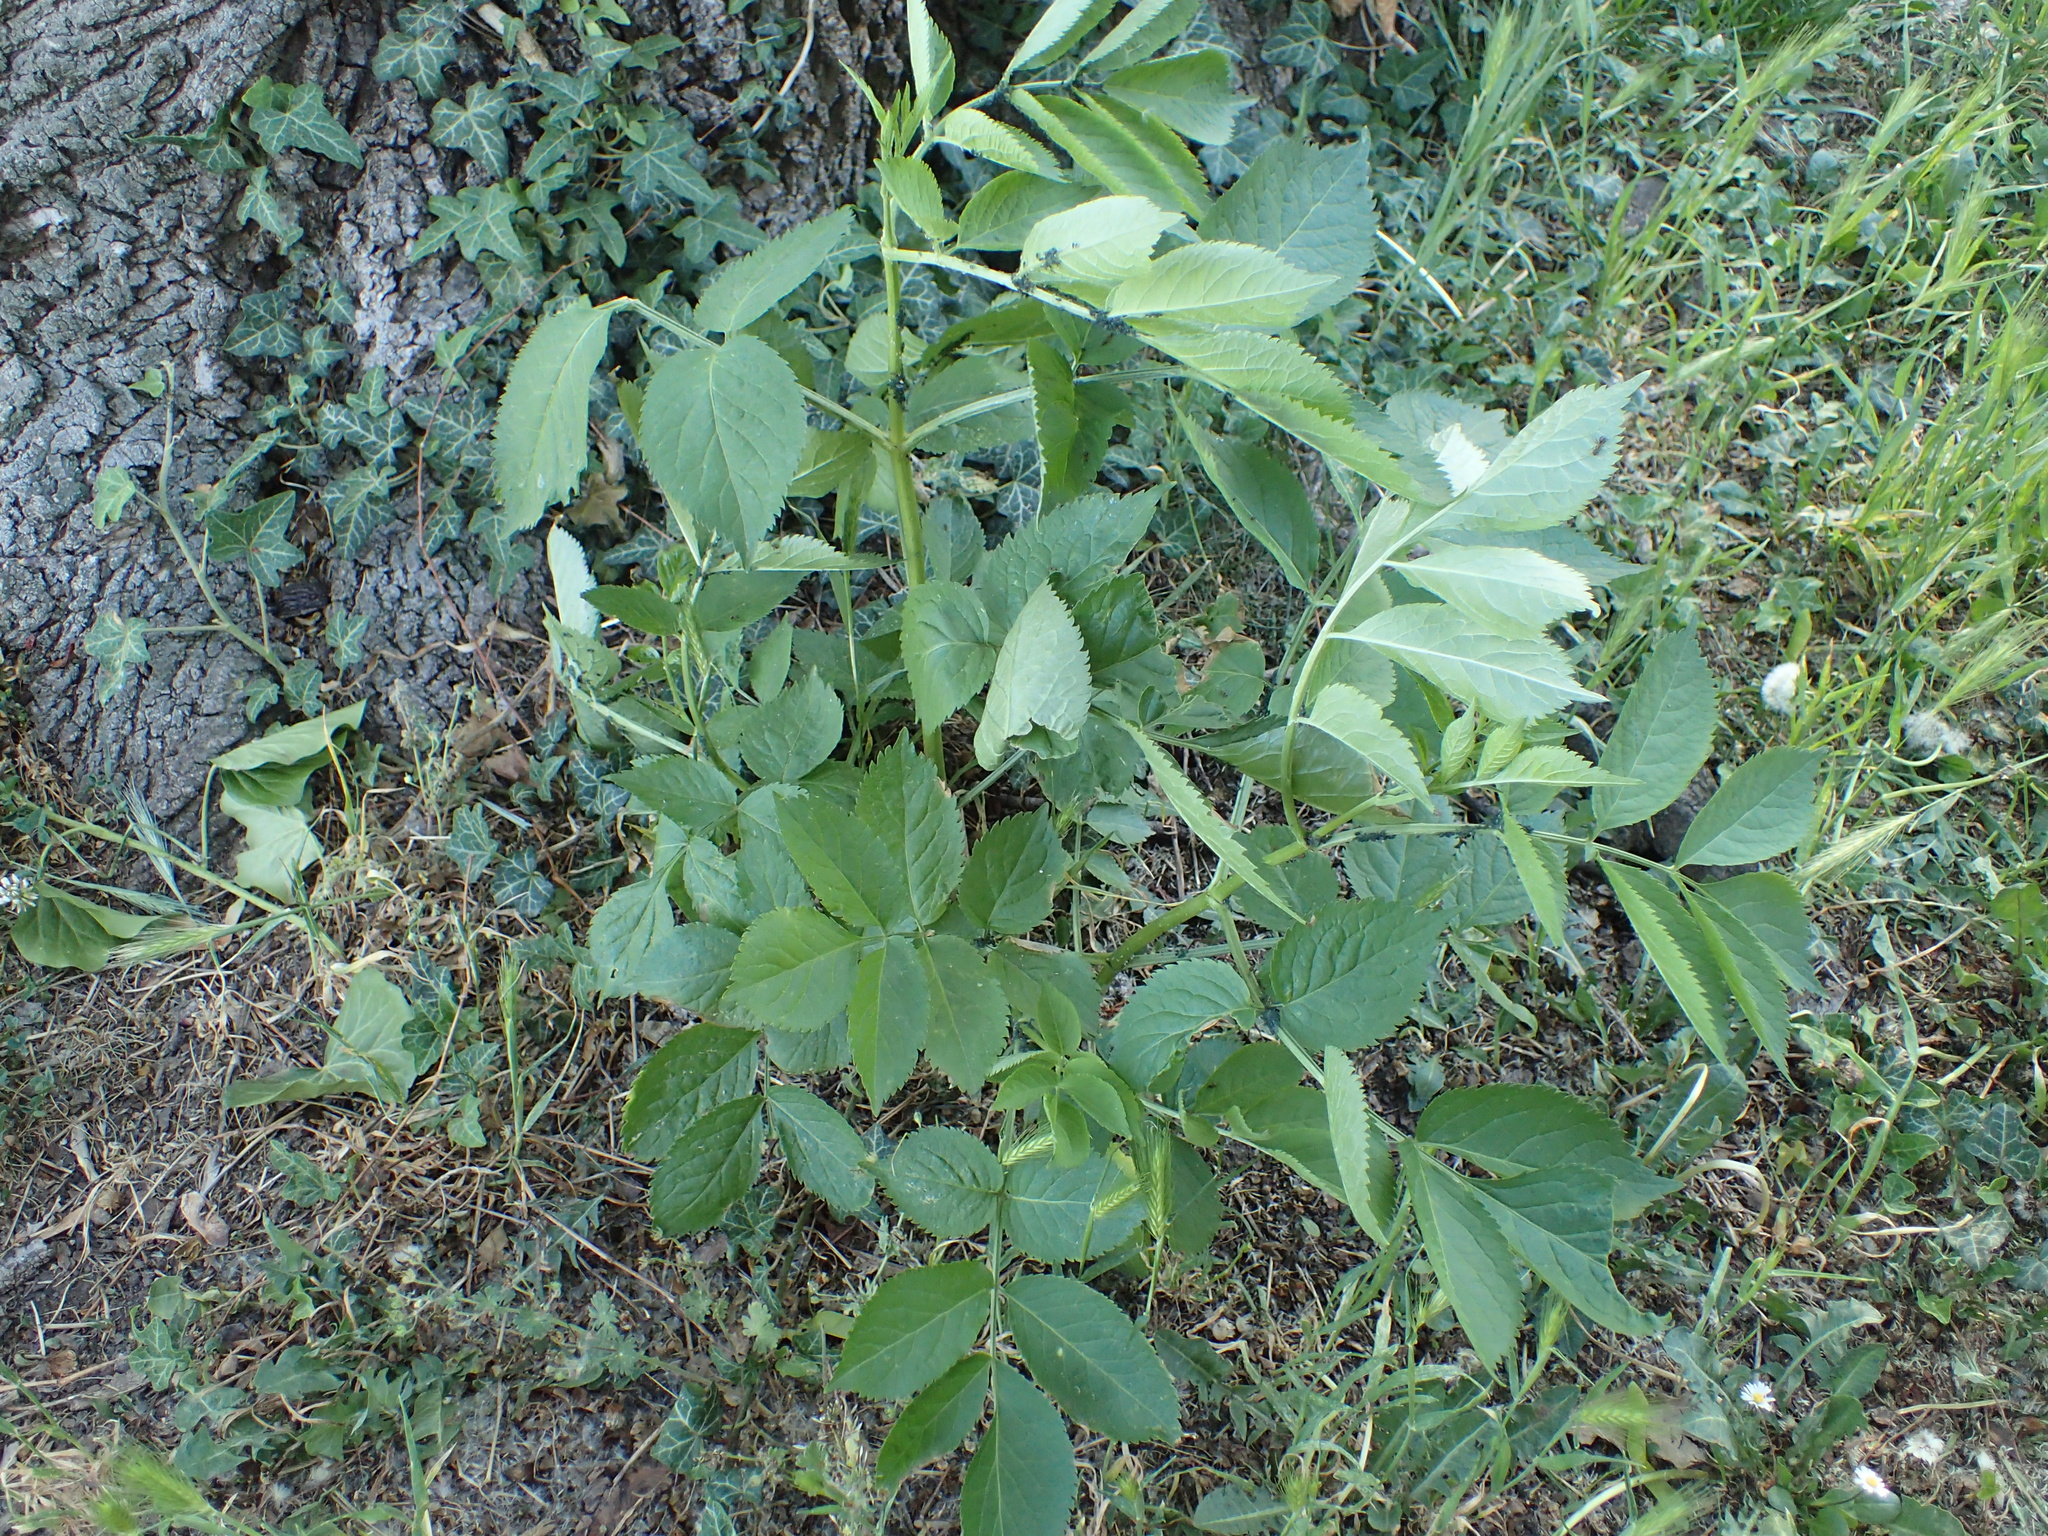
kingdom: Plantae
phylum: Tracheophyta
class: Magnoliopsida
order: Dipsacales
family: Viburnaceae
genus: Sambucus
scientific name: Sambucus nigra
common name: Elder
